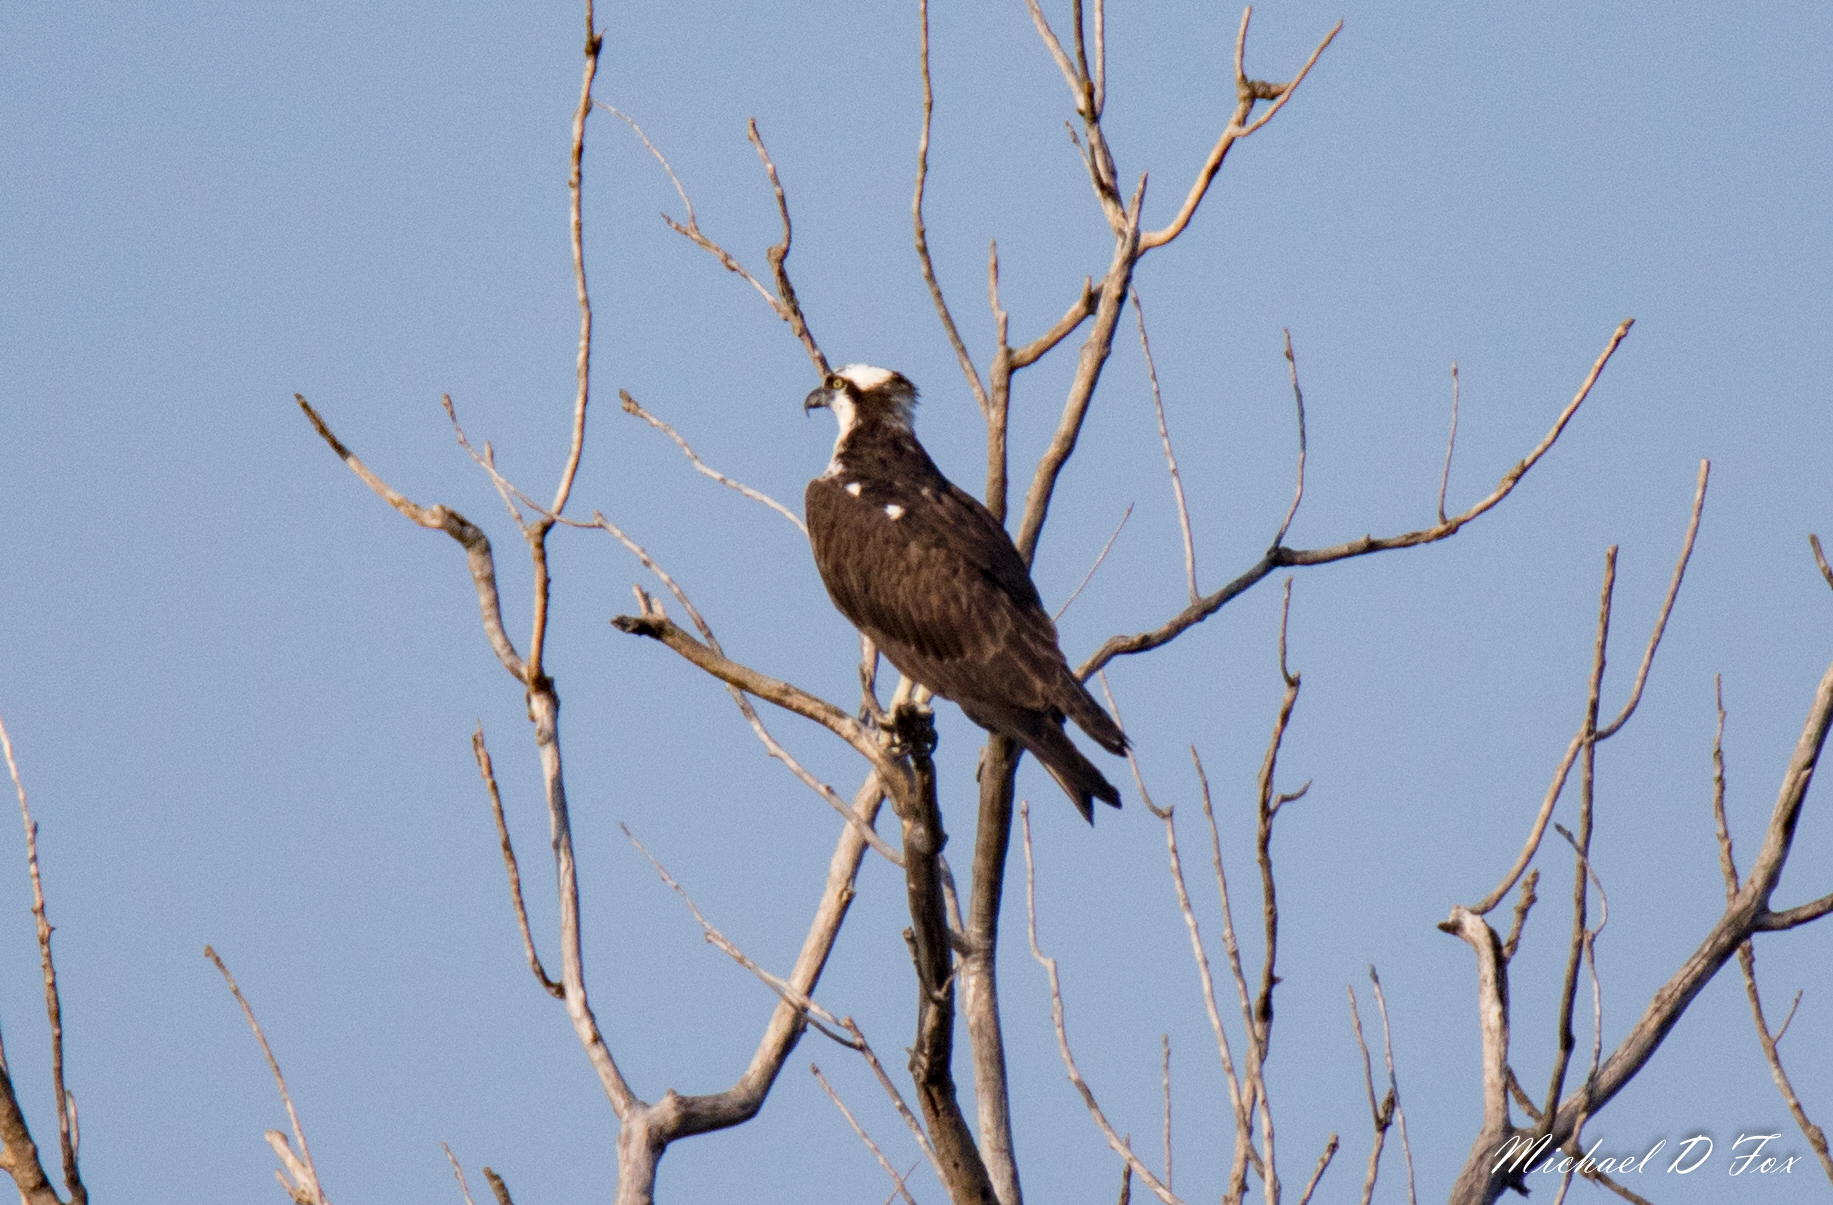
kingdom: Animalia
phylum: Chordata
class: Aves
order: Accipitriformes
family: Pandionidae
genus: Pandion
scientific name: Pandion haliaetus
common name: Osprey
